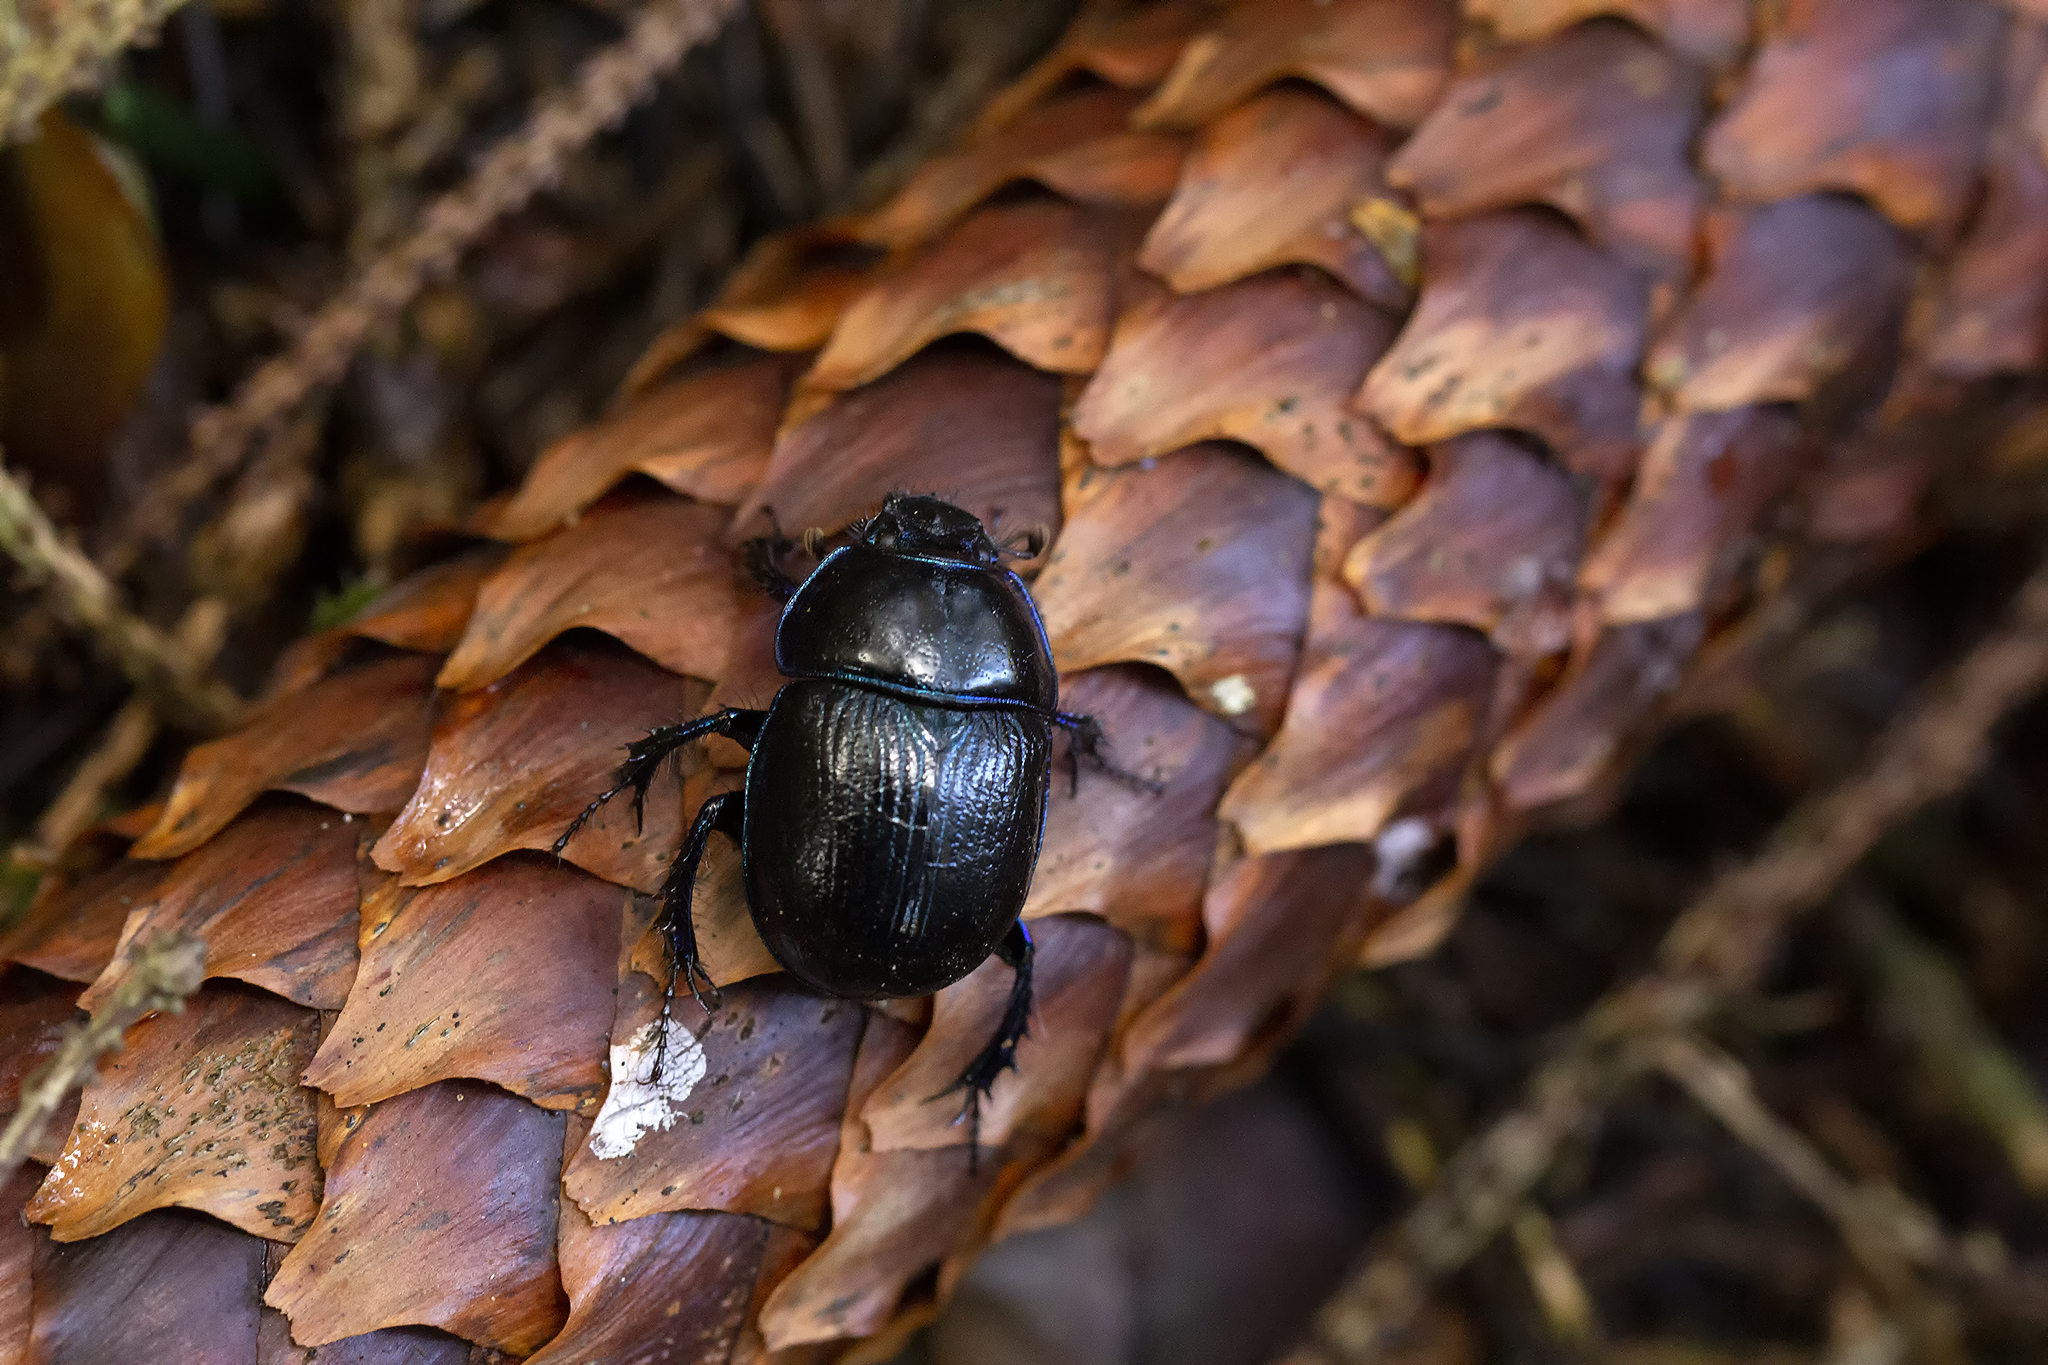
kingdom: Animalia
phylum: Arthropoda
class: Insecta
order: Coleoptera
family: Geotrupidae
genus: Anoplotrupes
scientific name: Anoplotrupes stercorosus
